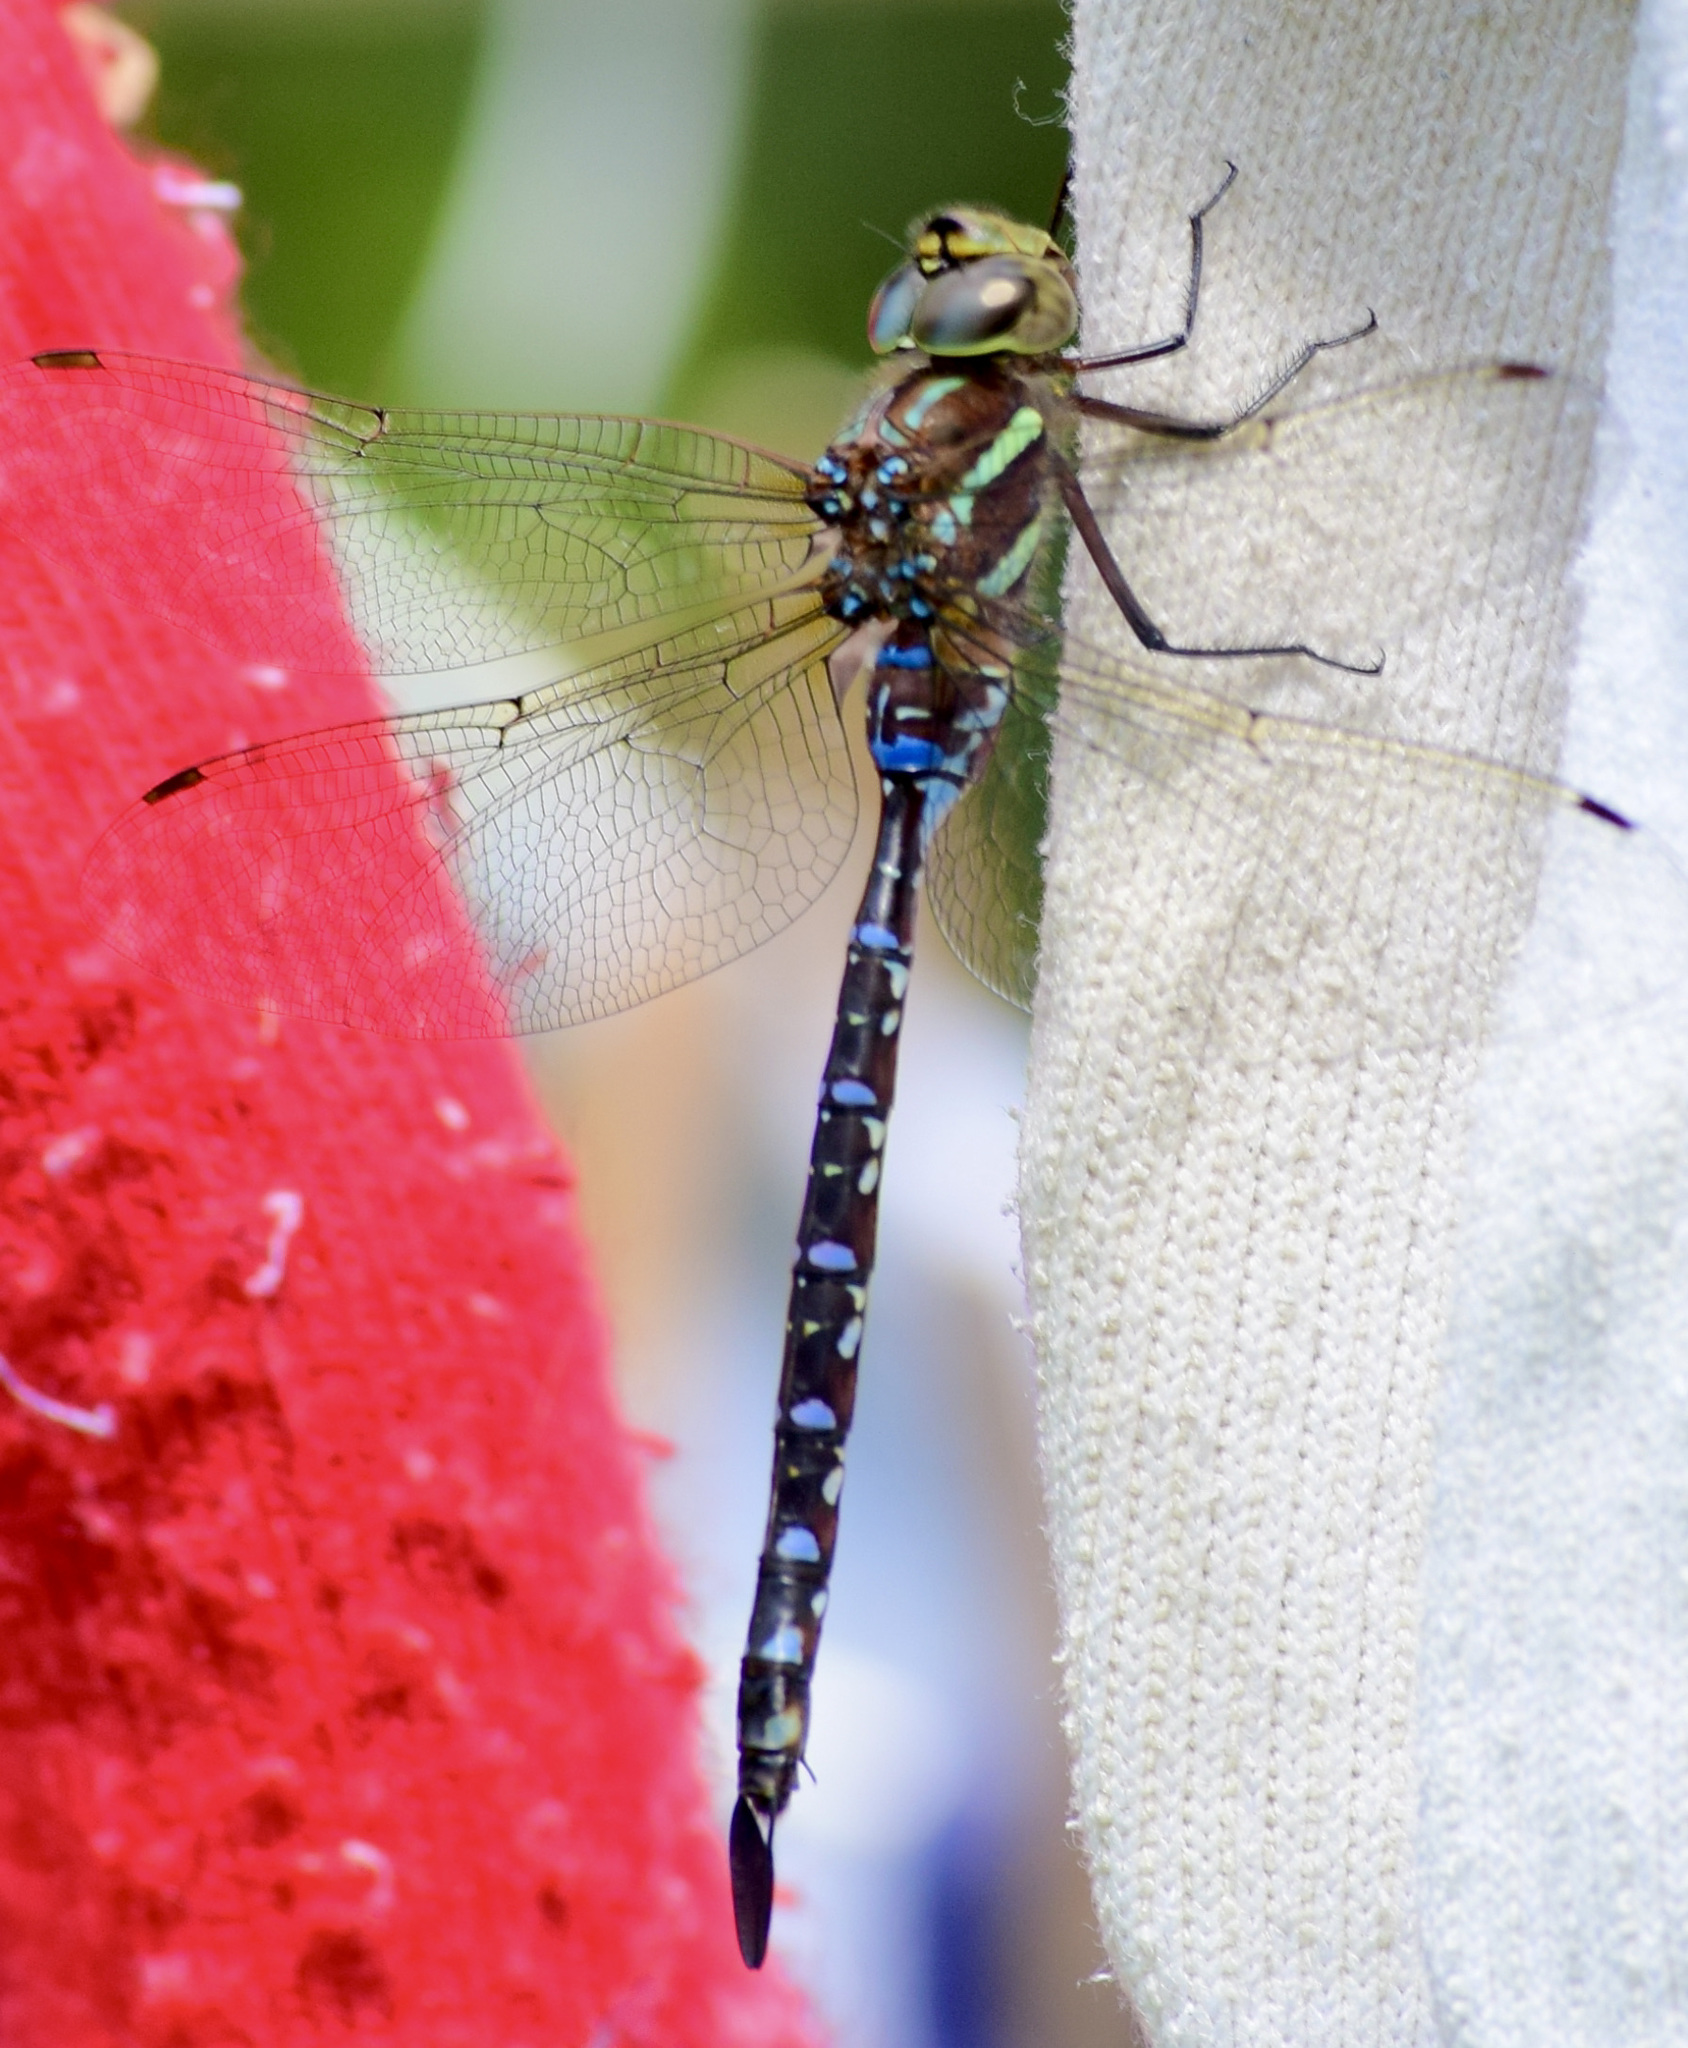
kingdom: Animalia
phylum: Arthropoda
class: Insecta
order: Odonata
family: Aeshnidae
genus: Aeshna
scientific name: Aeshna tuberculifera
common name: Aeschne à tubercules
